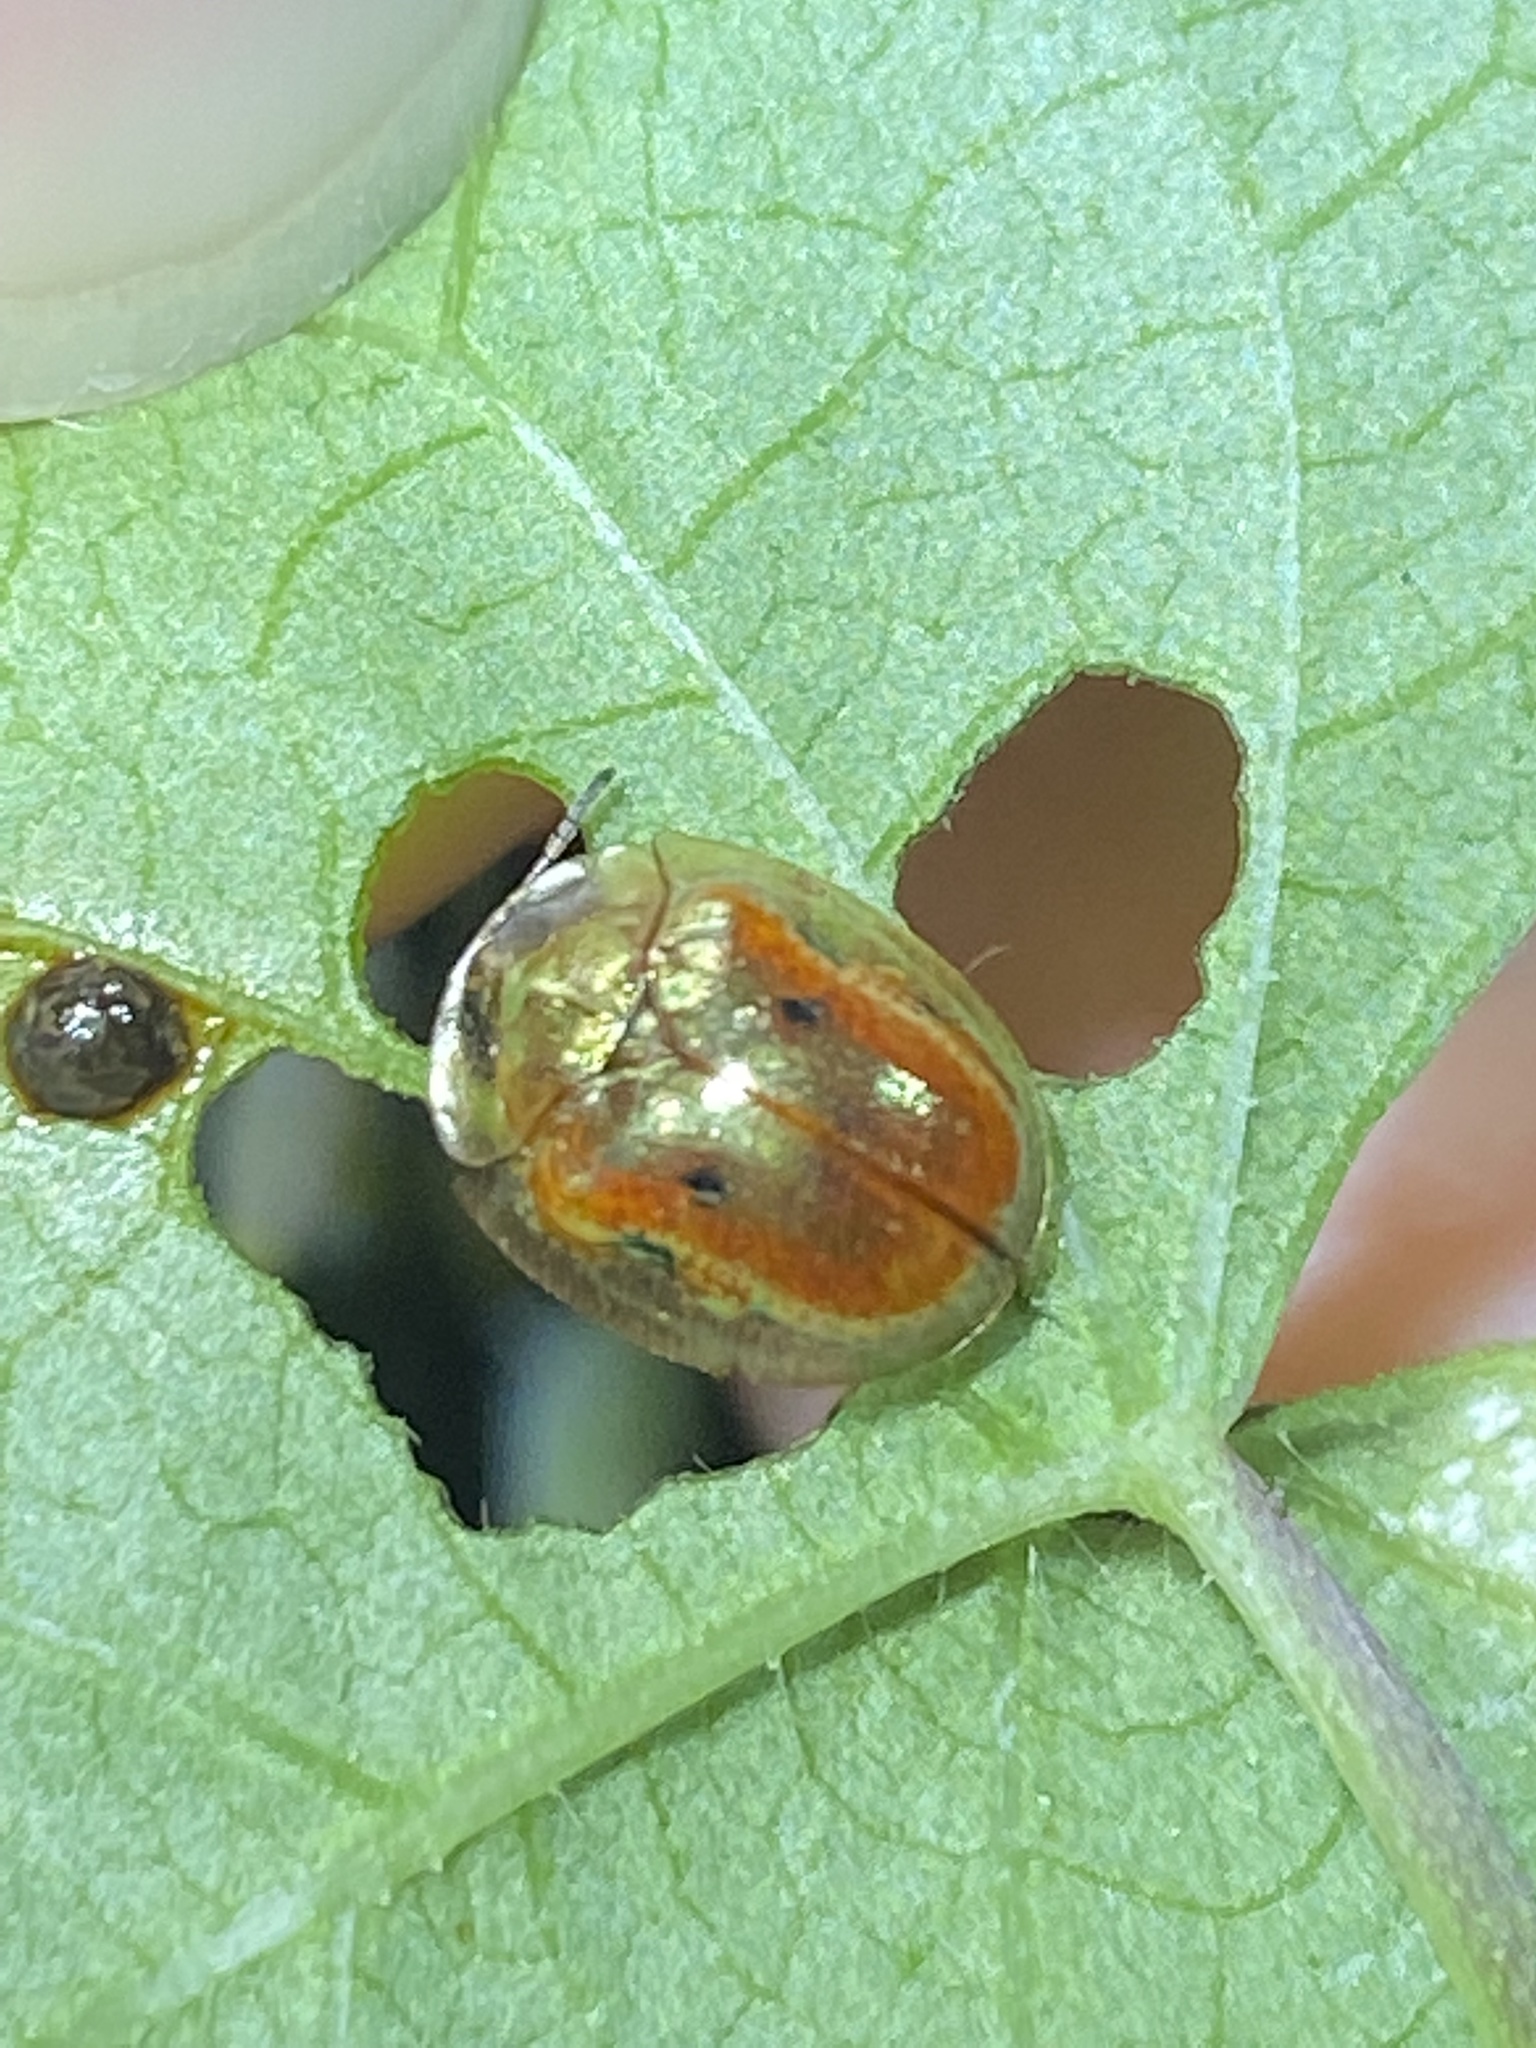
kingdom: Animalia
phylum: Arthropoda
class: Insecta
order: Coleoptera
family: Chrysomelidae
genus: Charidotella
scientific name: Charidotella sexpunctata
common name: Golden tortoise beetle
